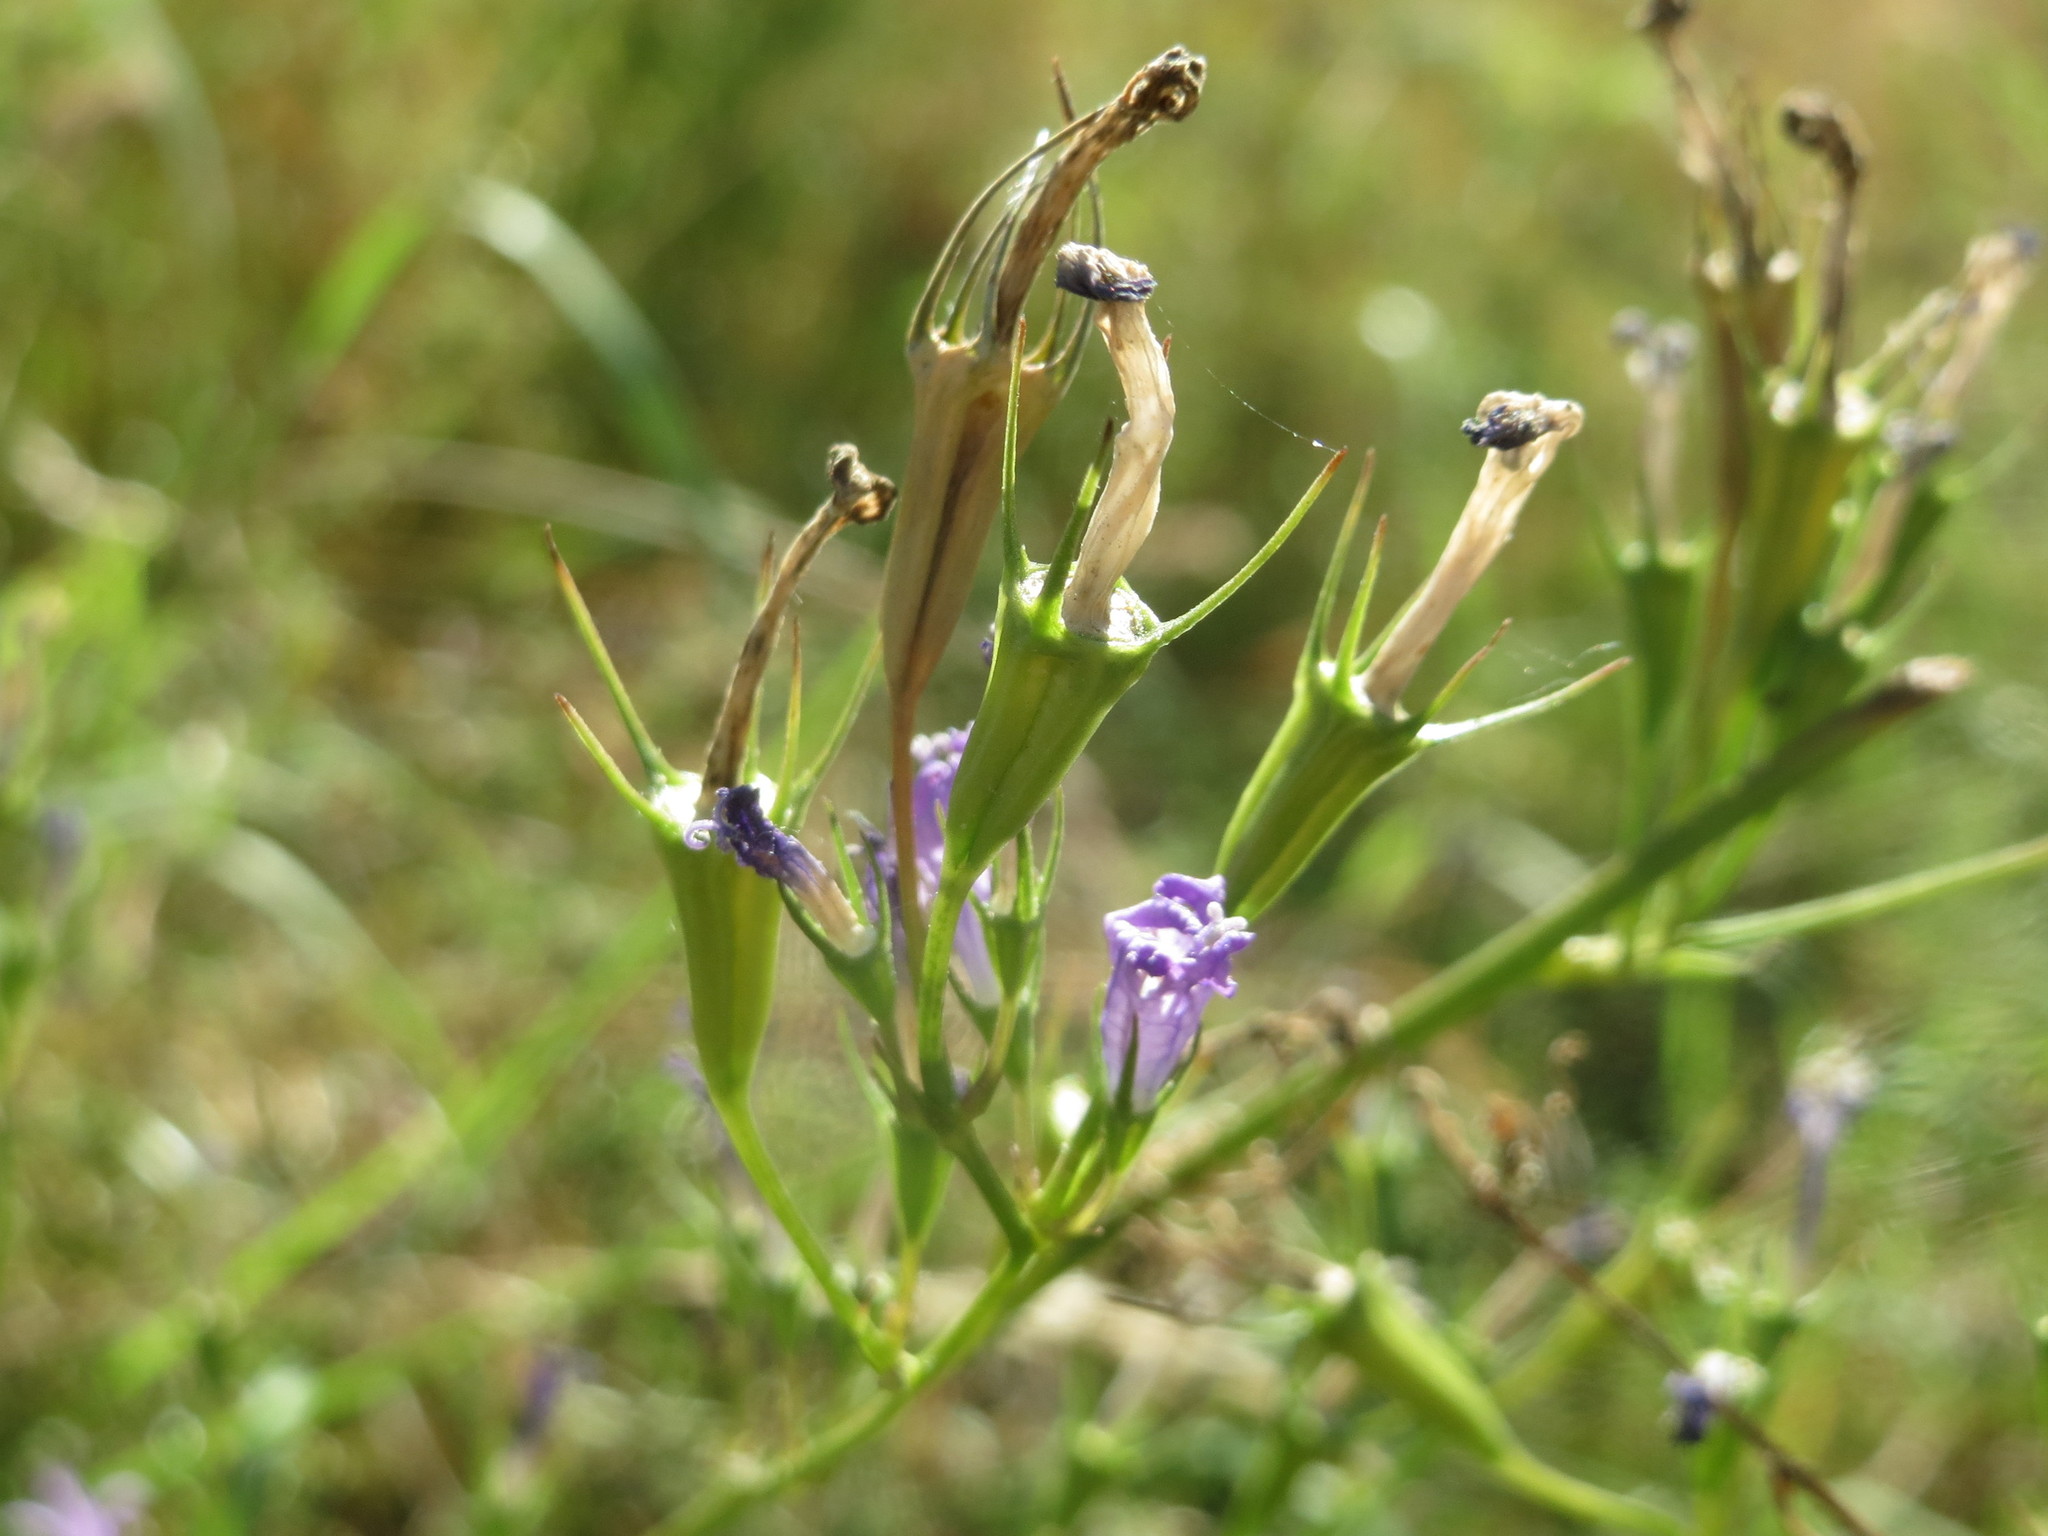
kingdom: Plantae
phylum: Tracheophyta
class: Magnoliopsida
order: Asterales
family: Campanulaceae
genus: Campanula
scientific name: Campanula rapunculus
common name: Rampion bellflower
